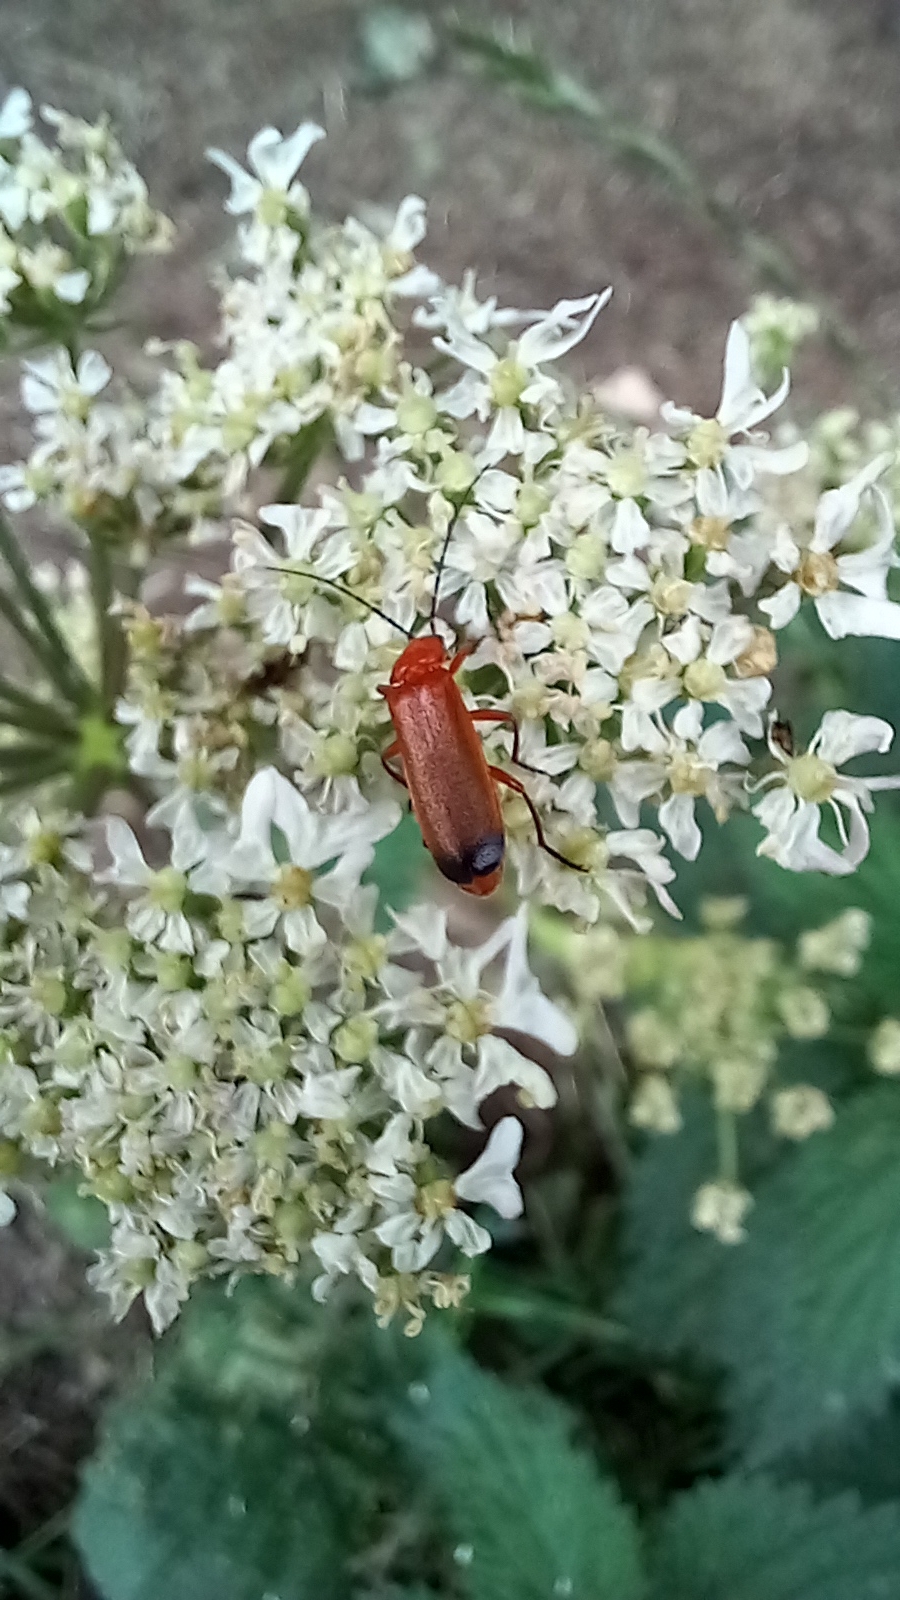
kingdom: Animalia
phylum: Arthropoda
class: Insecta
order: Coleoptera
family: Cantharidae
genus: Rhagonycha
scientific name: Rhagonycha fulva
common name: Common red soldier beetle
